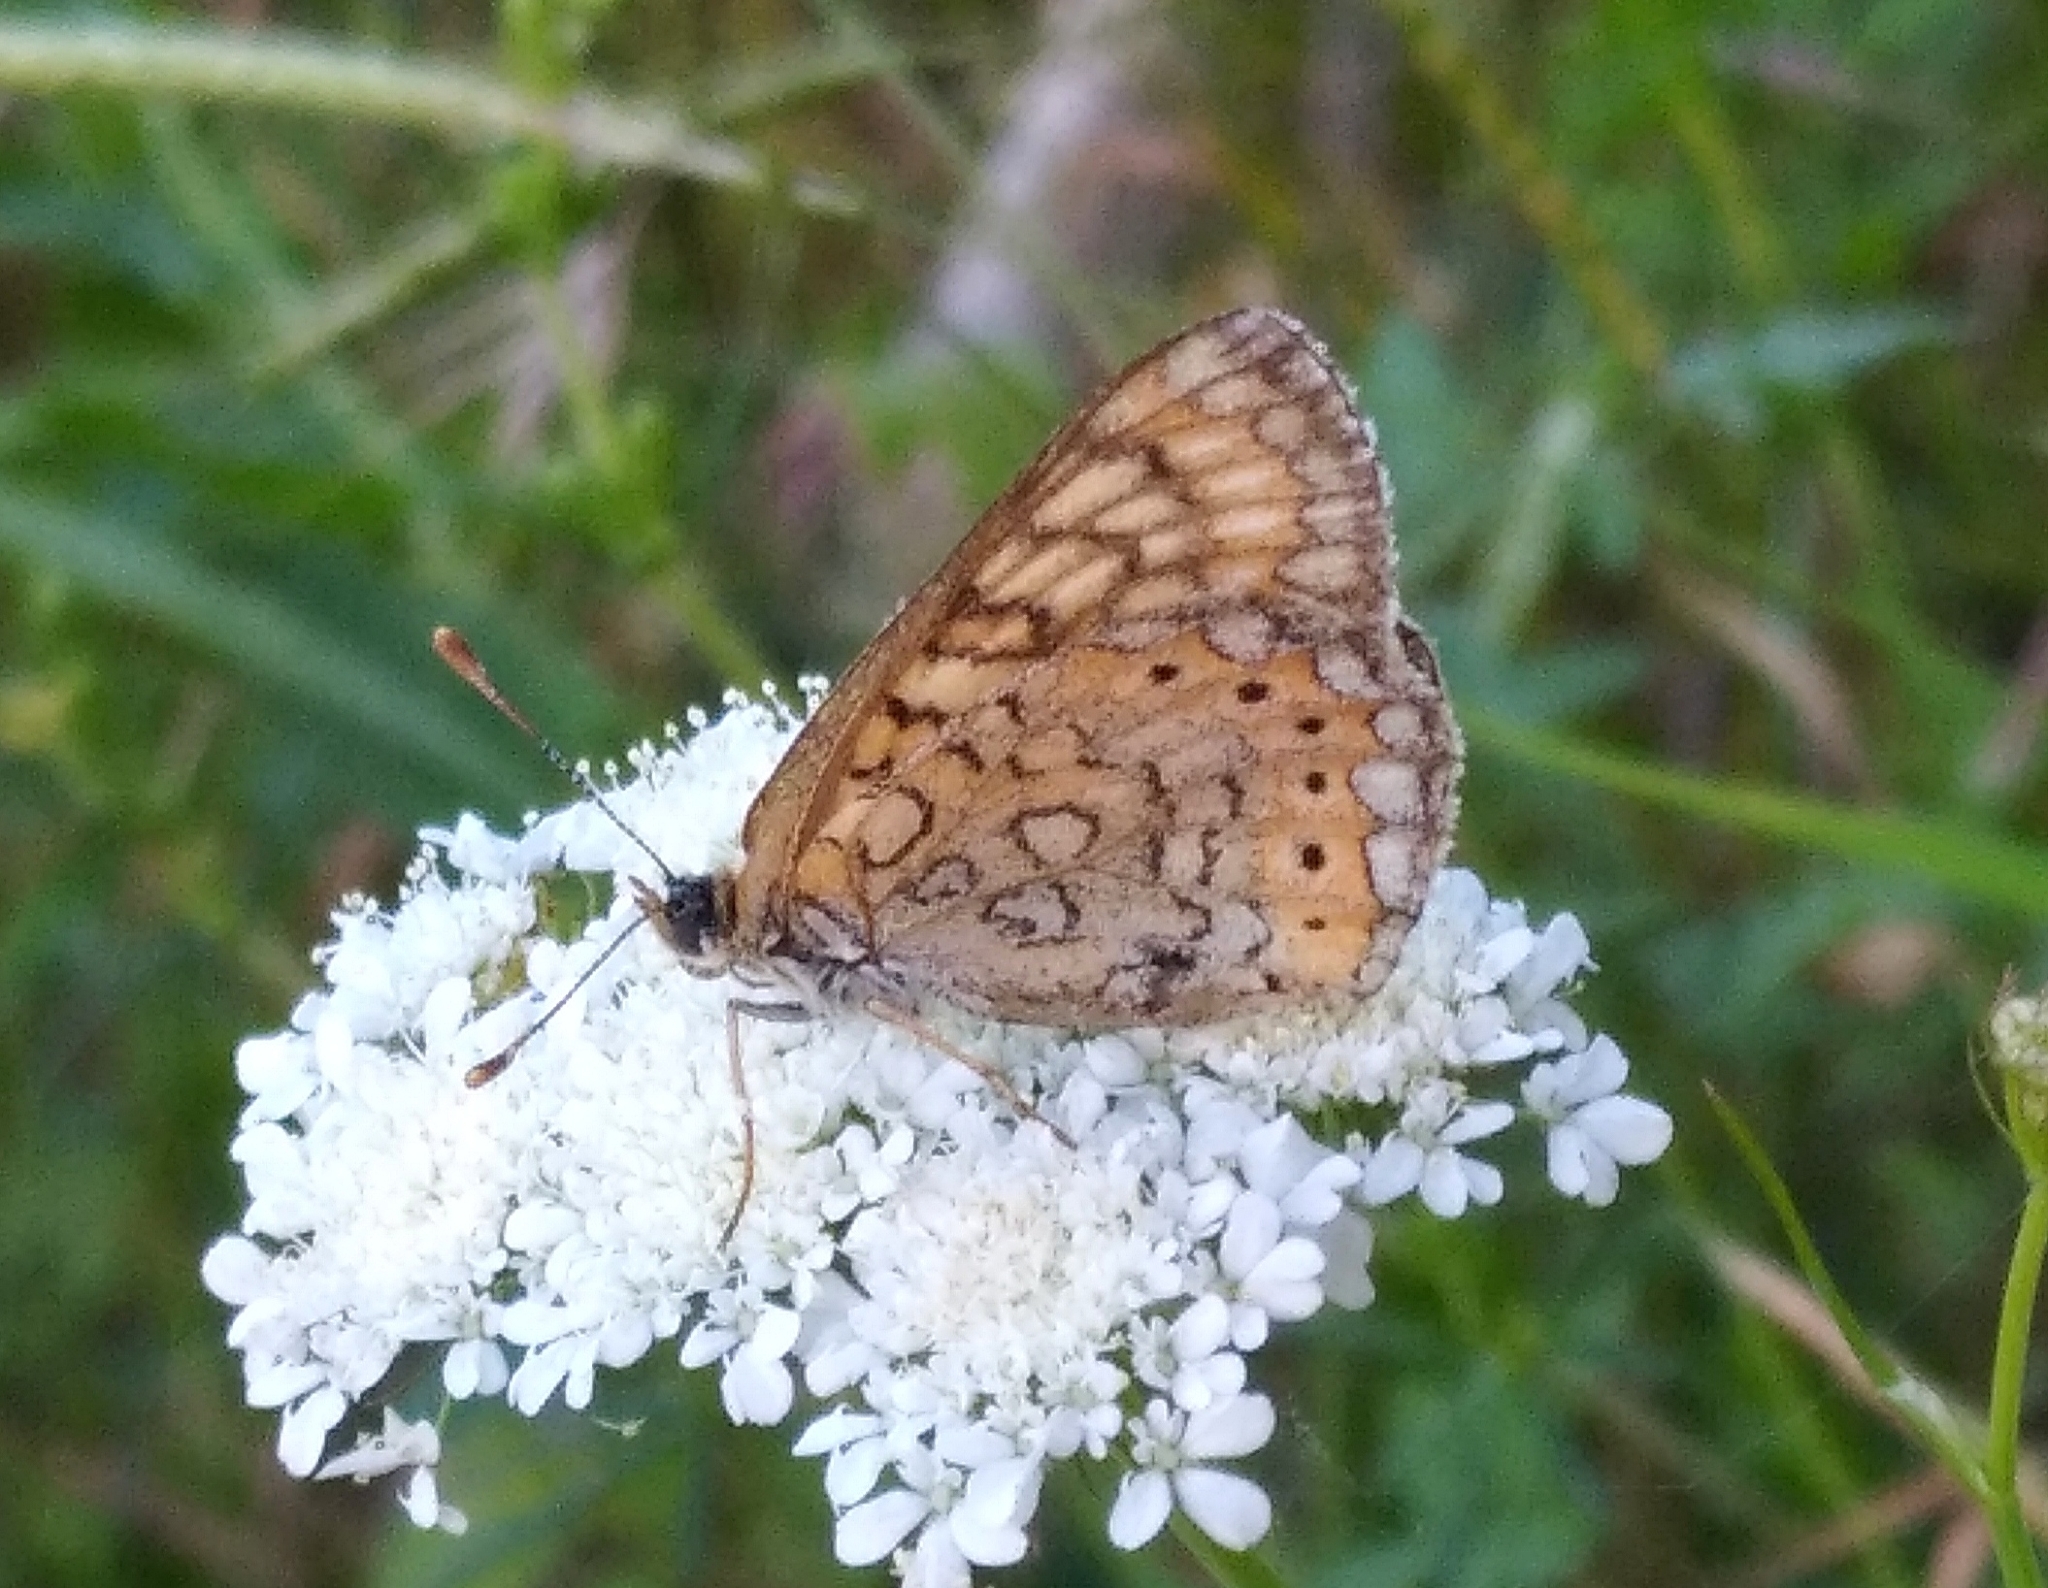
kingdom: Animalia
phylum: Arthropoda
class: Insecta
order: Lepidoptera
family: Nymphalidae
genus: Euphydryas
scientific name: Euphydryas aurinia
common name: Marsh fritillary
